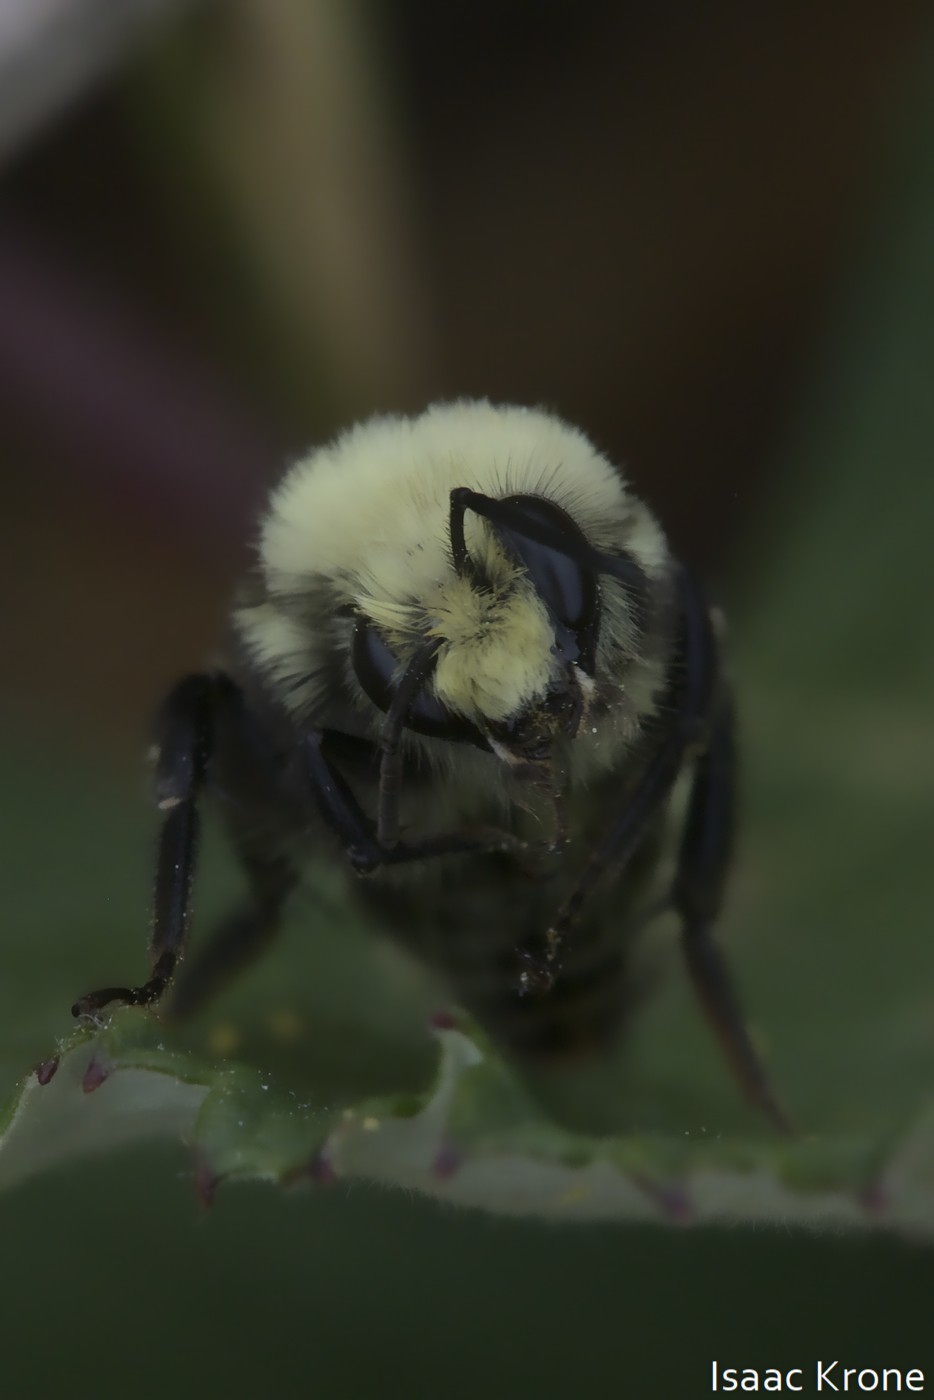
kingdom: Animalia
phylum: Arthropoda
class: Insecta
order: Hymenoptera
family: Apidae
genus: Bombus
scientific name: Bombus vosnesenskii
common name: Vosnesensky bumble bee
